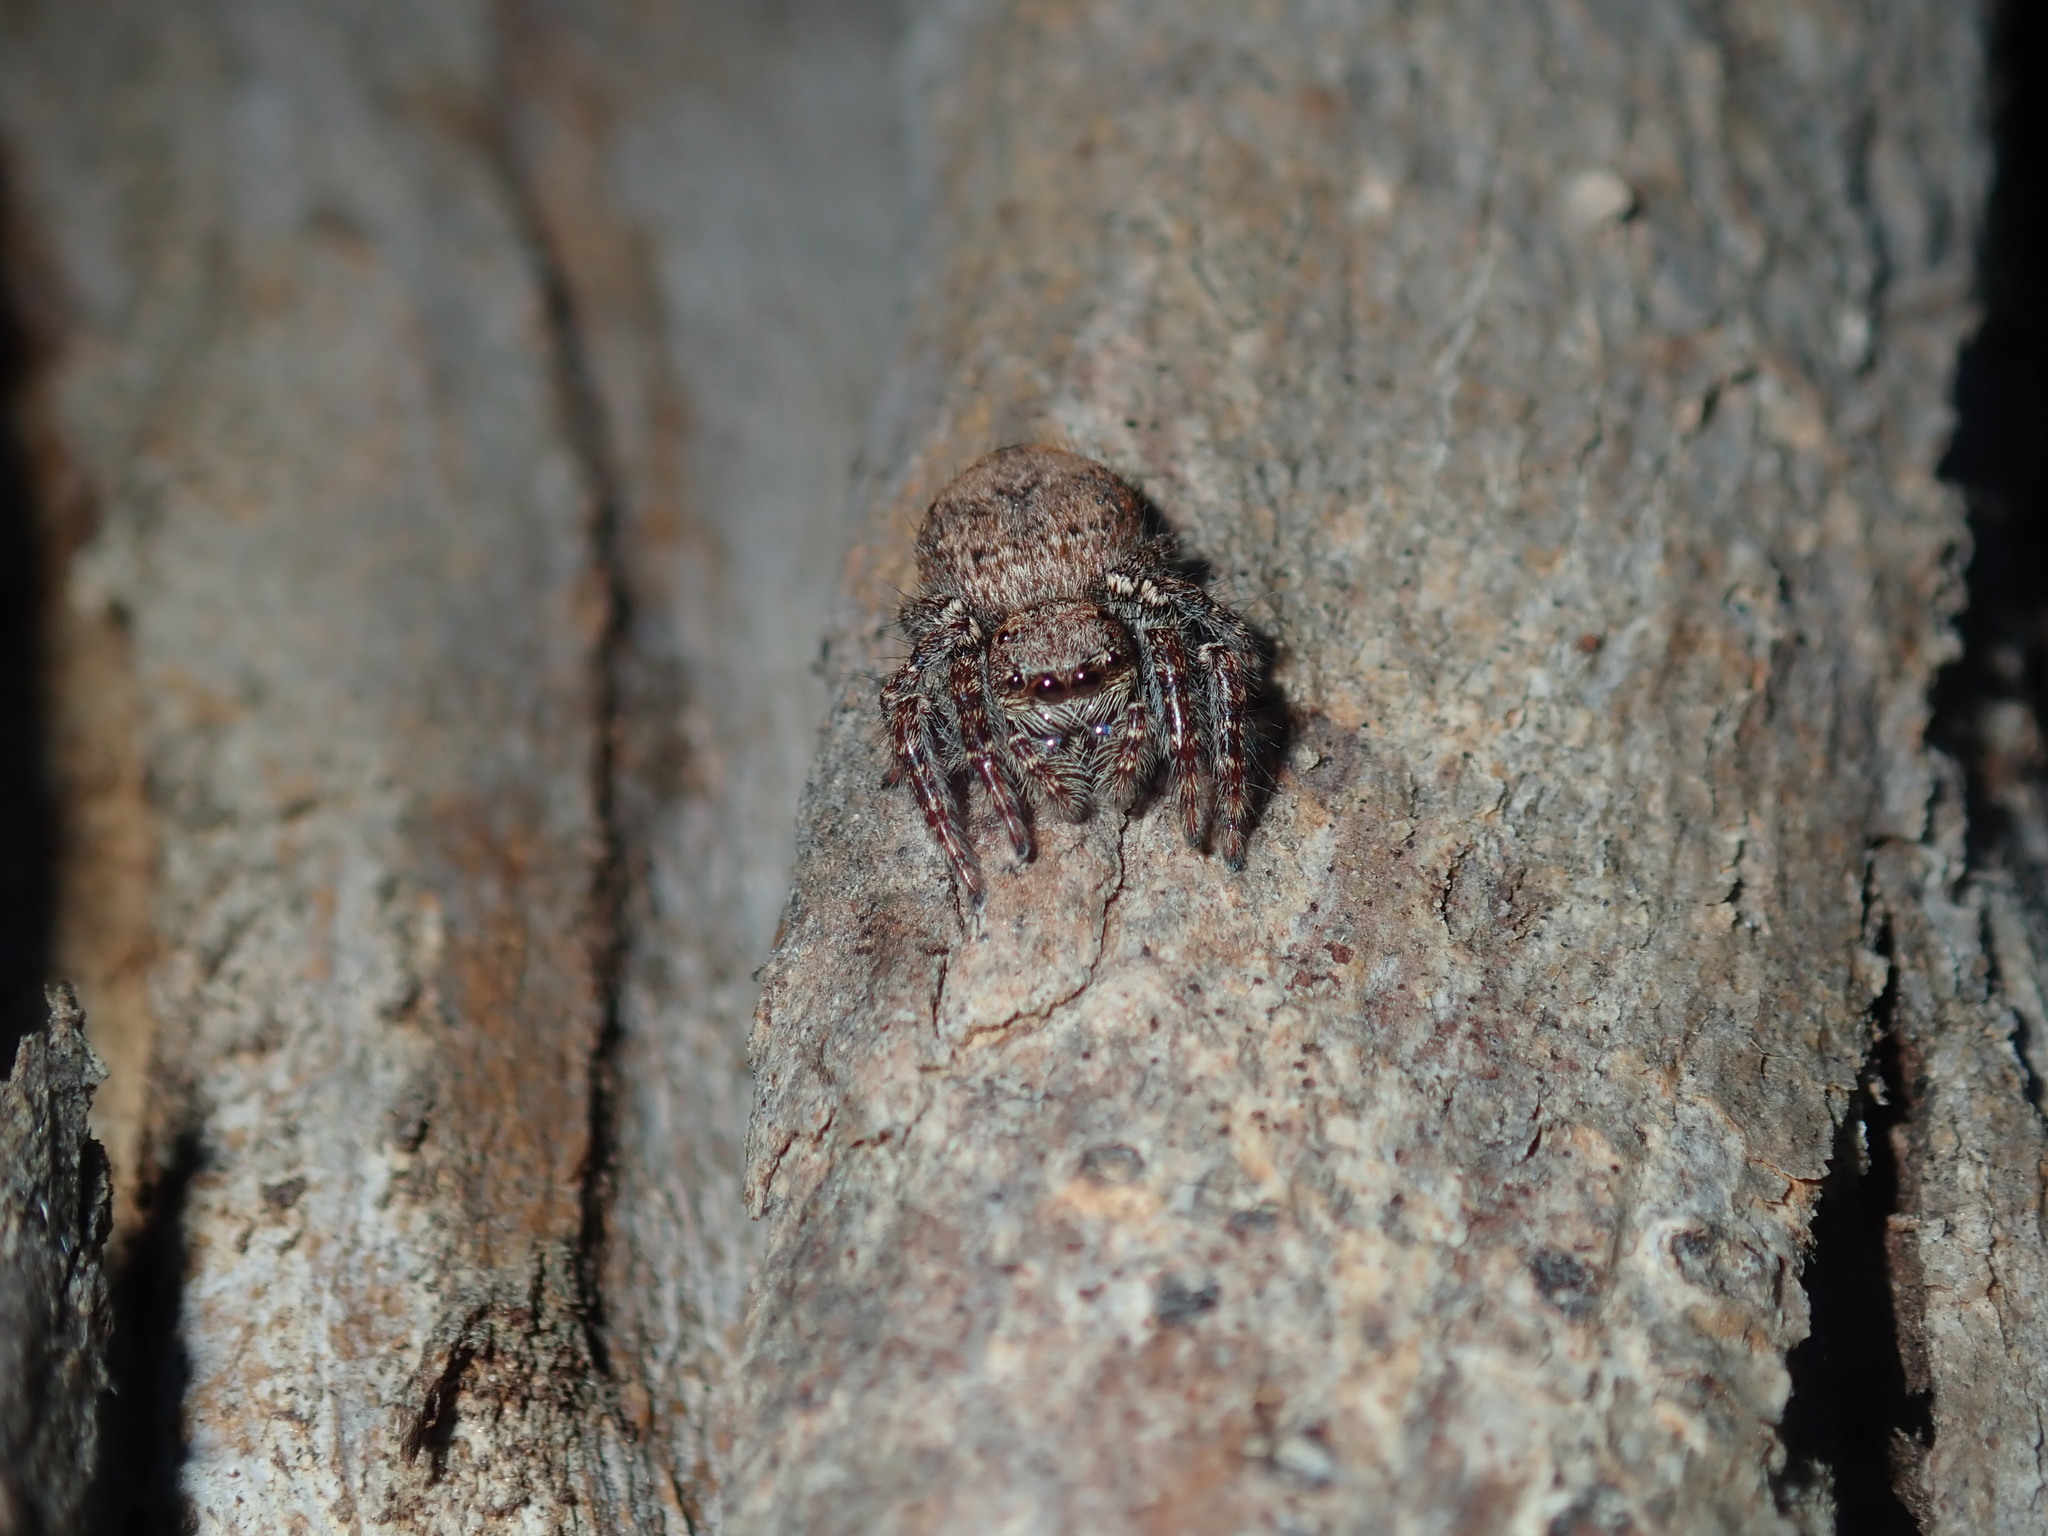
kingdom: Animalia
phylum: Arthropoda
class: Arachnida
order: Araneae
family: Salticidae
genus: Servaea
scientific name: Servaea incana
